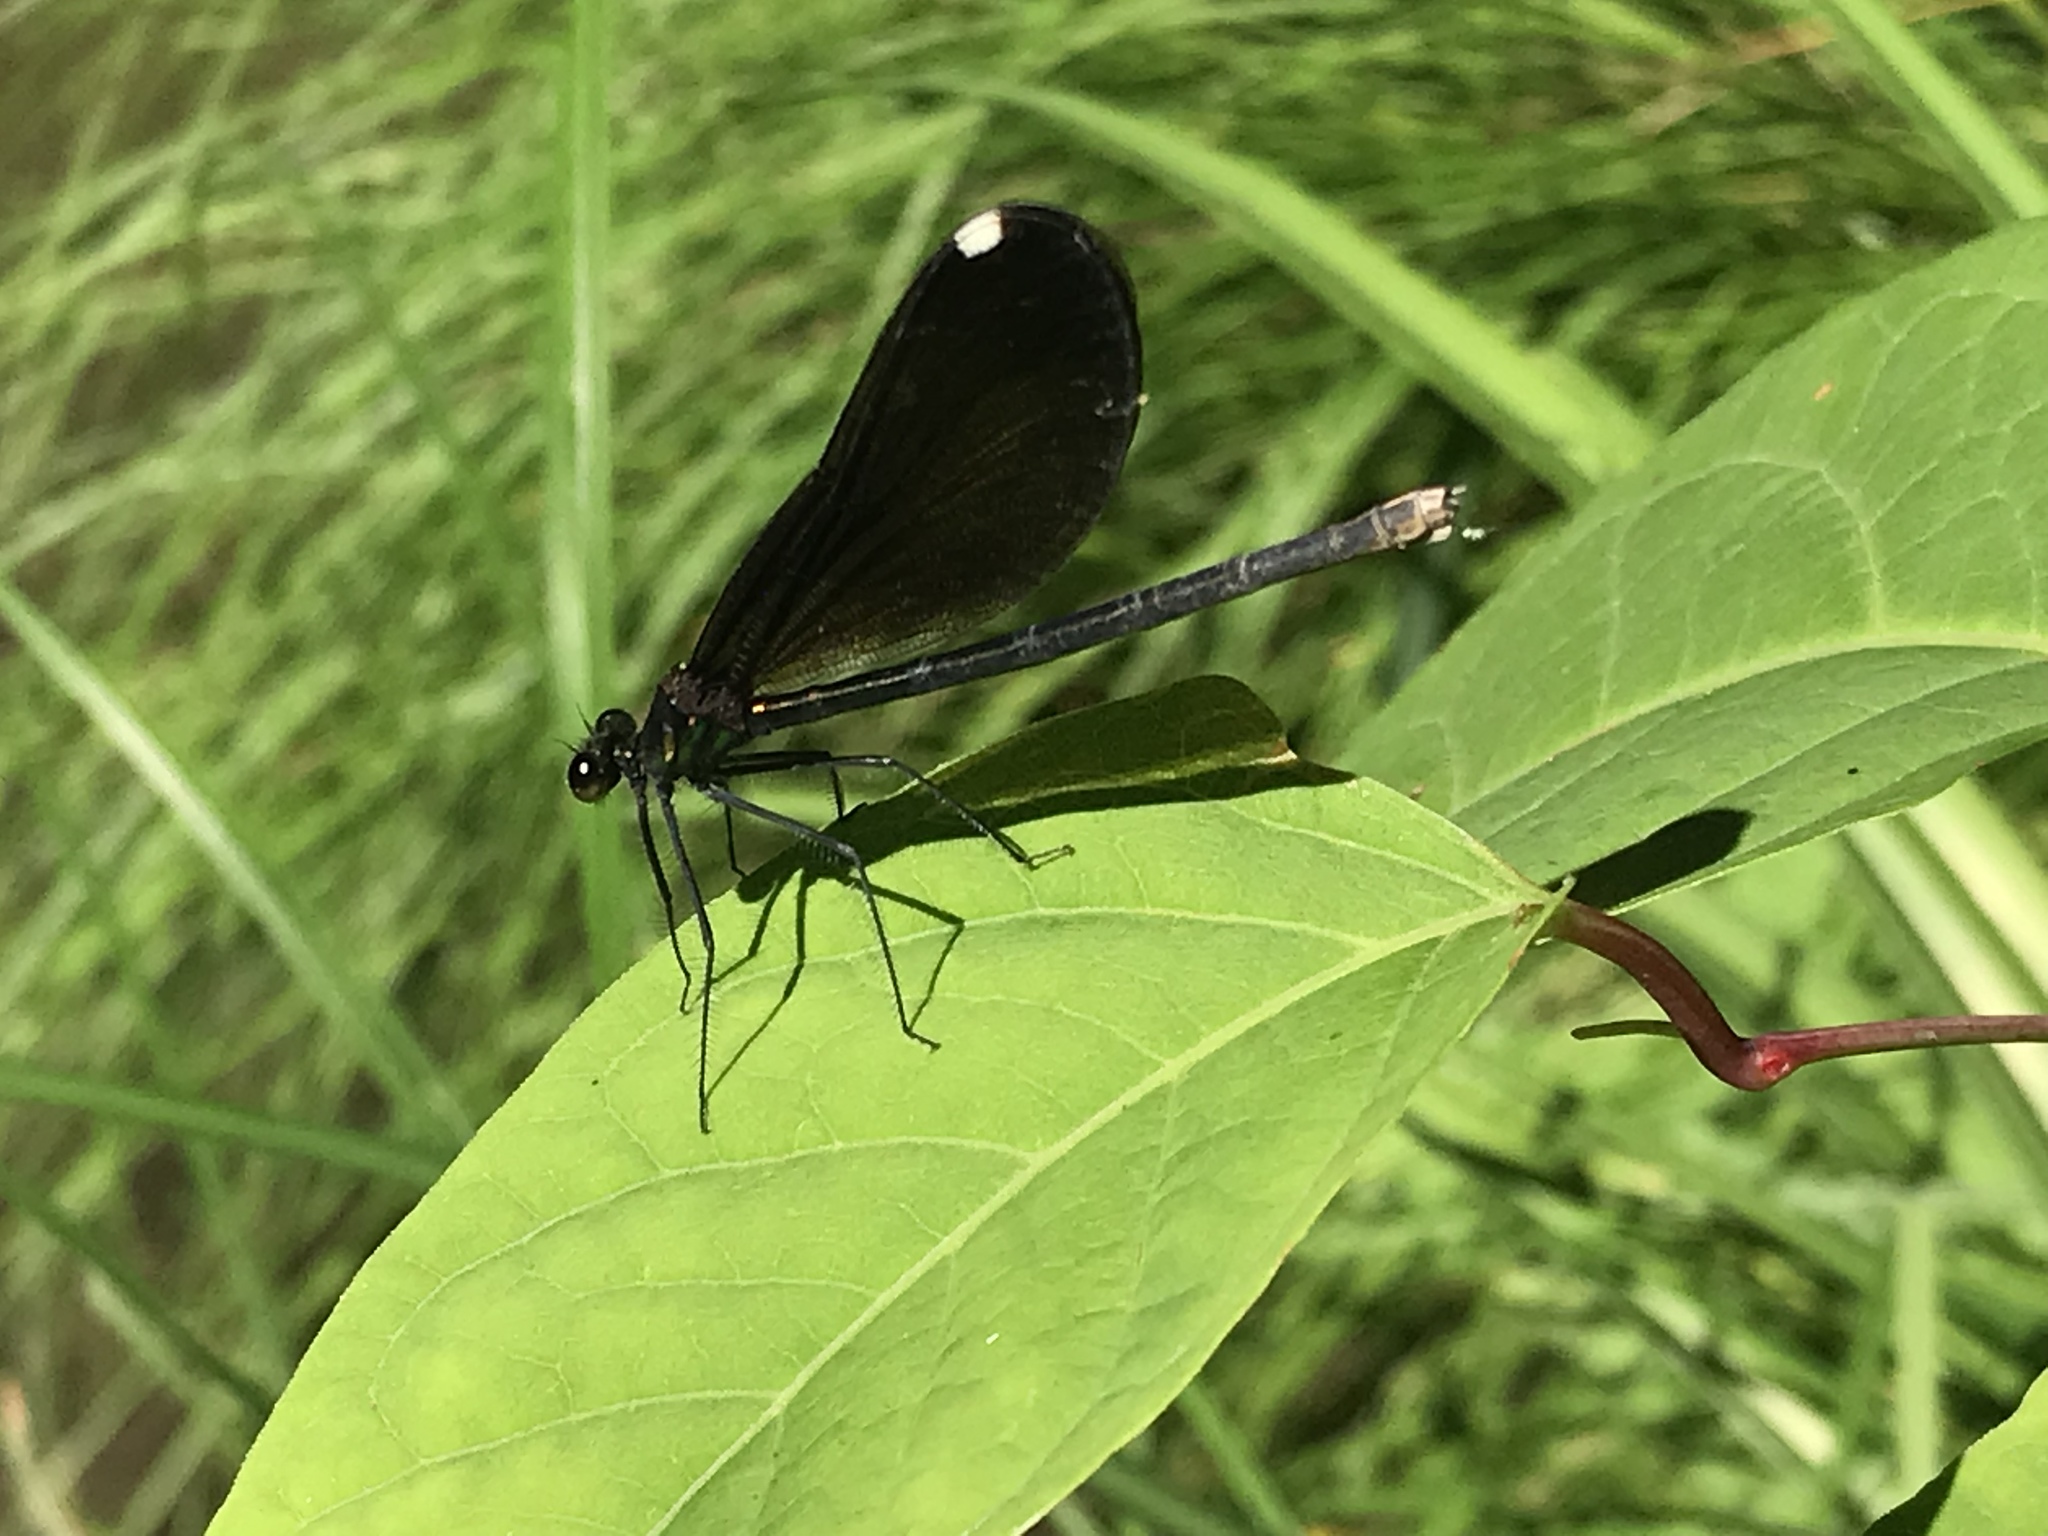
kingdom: Animalia
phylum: Arthropoda
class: Insecta
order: Odonata
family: Calopterygidae
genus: Calopteryx
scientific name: Calopteryx maculata
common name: Ebony jewelwing
